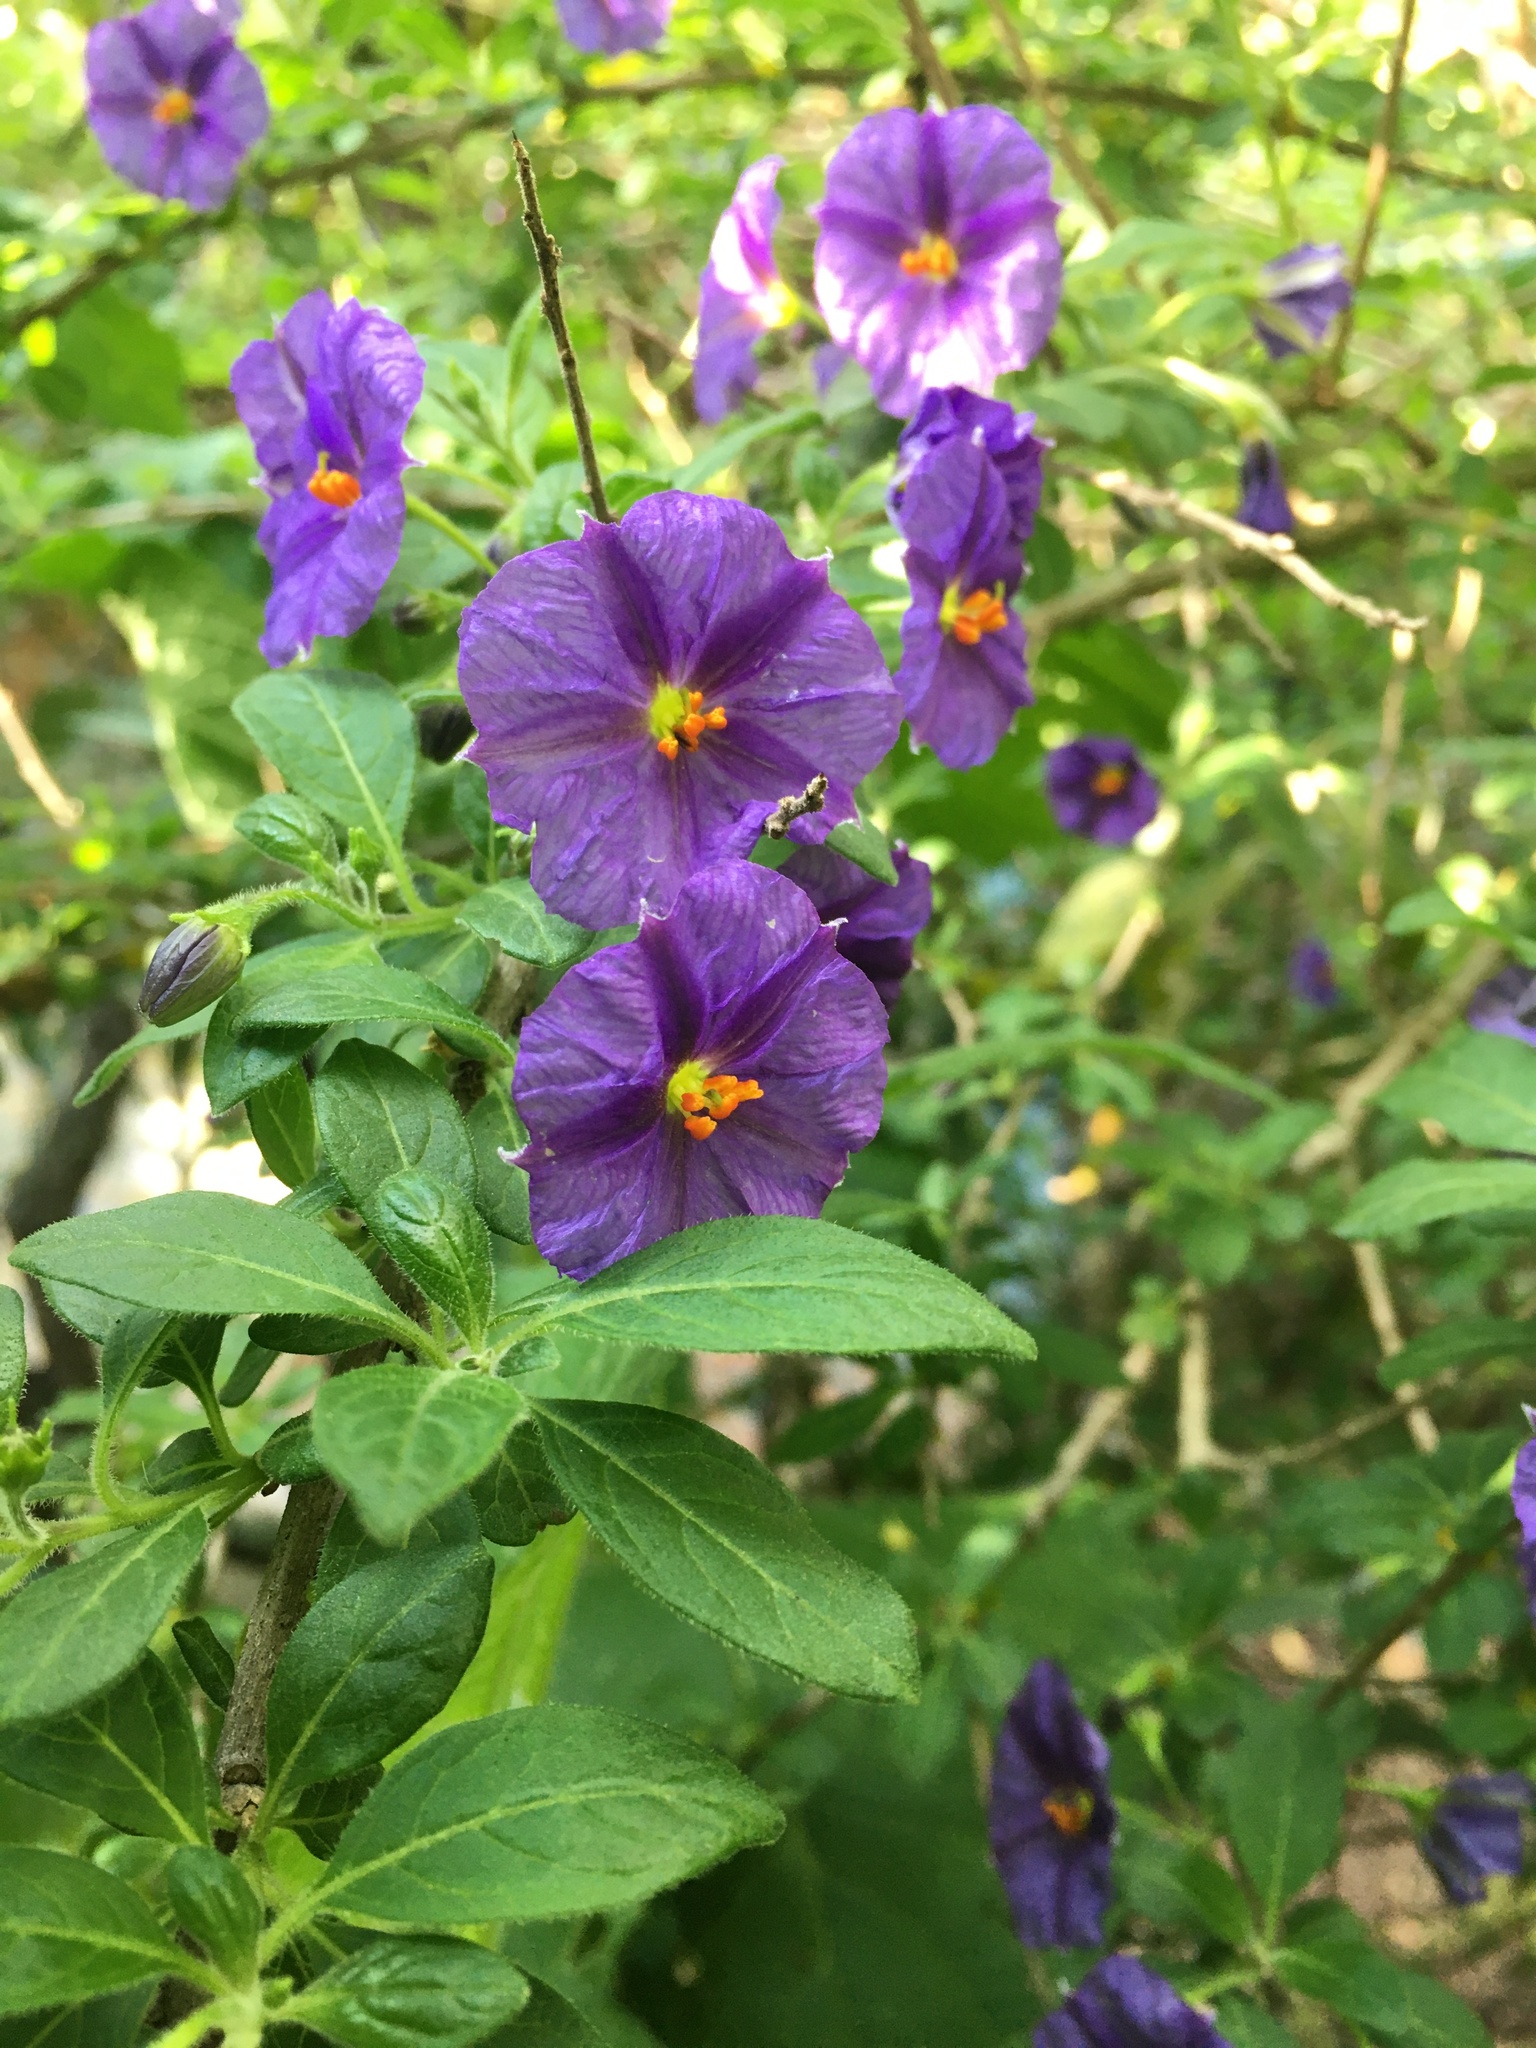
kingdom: Plantae
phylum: Tracheophyta
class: Magnoliopsida
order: Solanales
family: Solanaceae
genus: Lycianthes
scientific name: Lycianthes rantonnetii
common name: Blue potatobush
